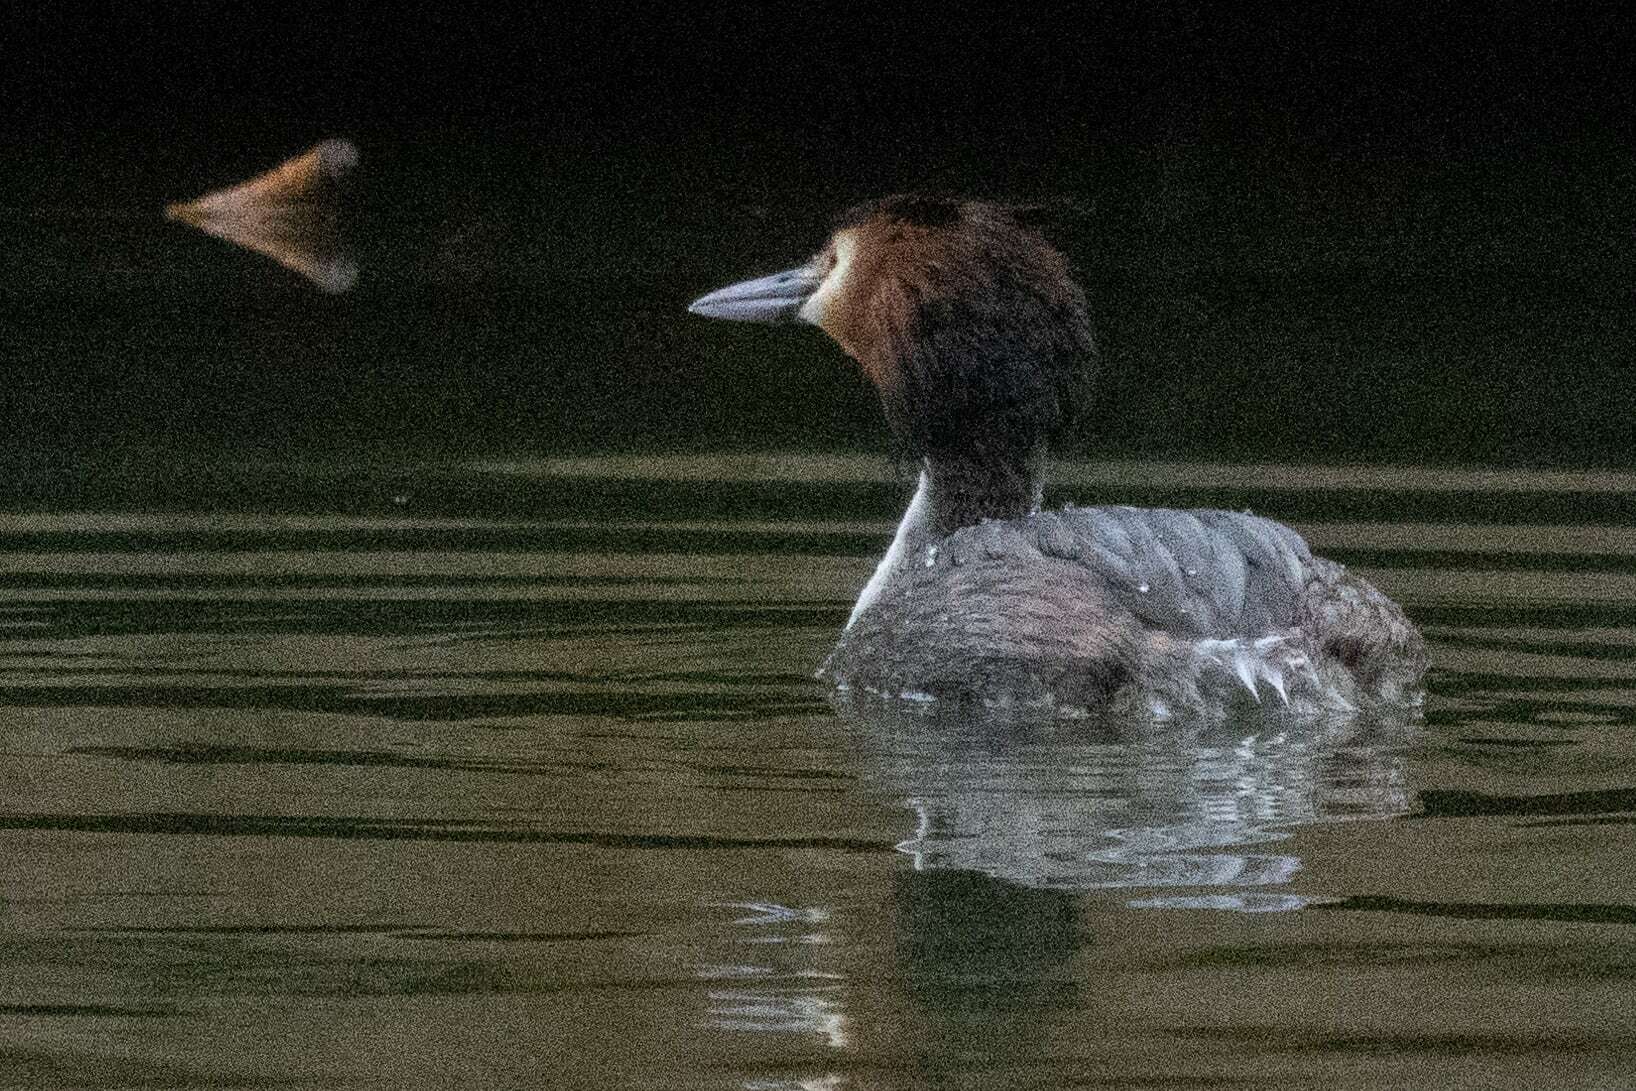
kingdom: Animalia
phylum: Chordata
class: Aves
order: Podicipediformes
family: Podicipedidae
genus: Podiceps
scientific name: Podiceps cristatus
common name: Great crested grebe
